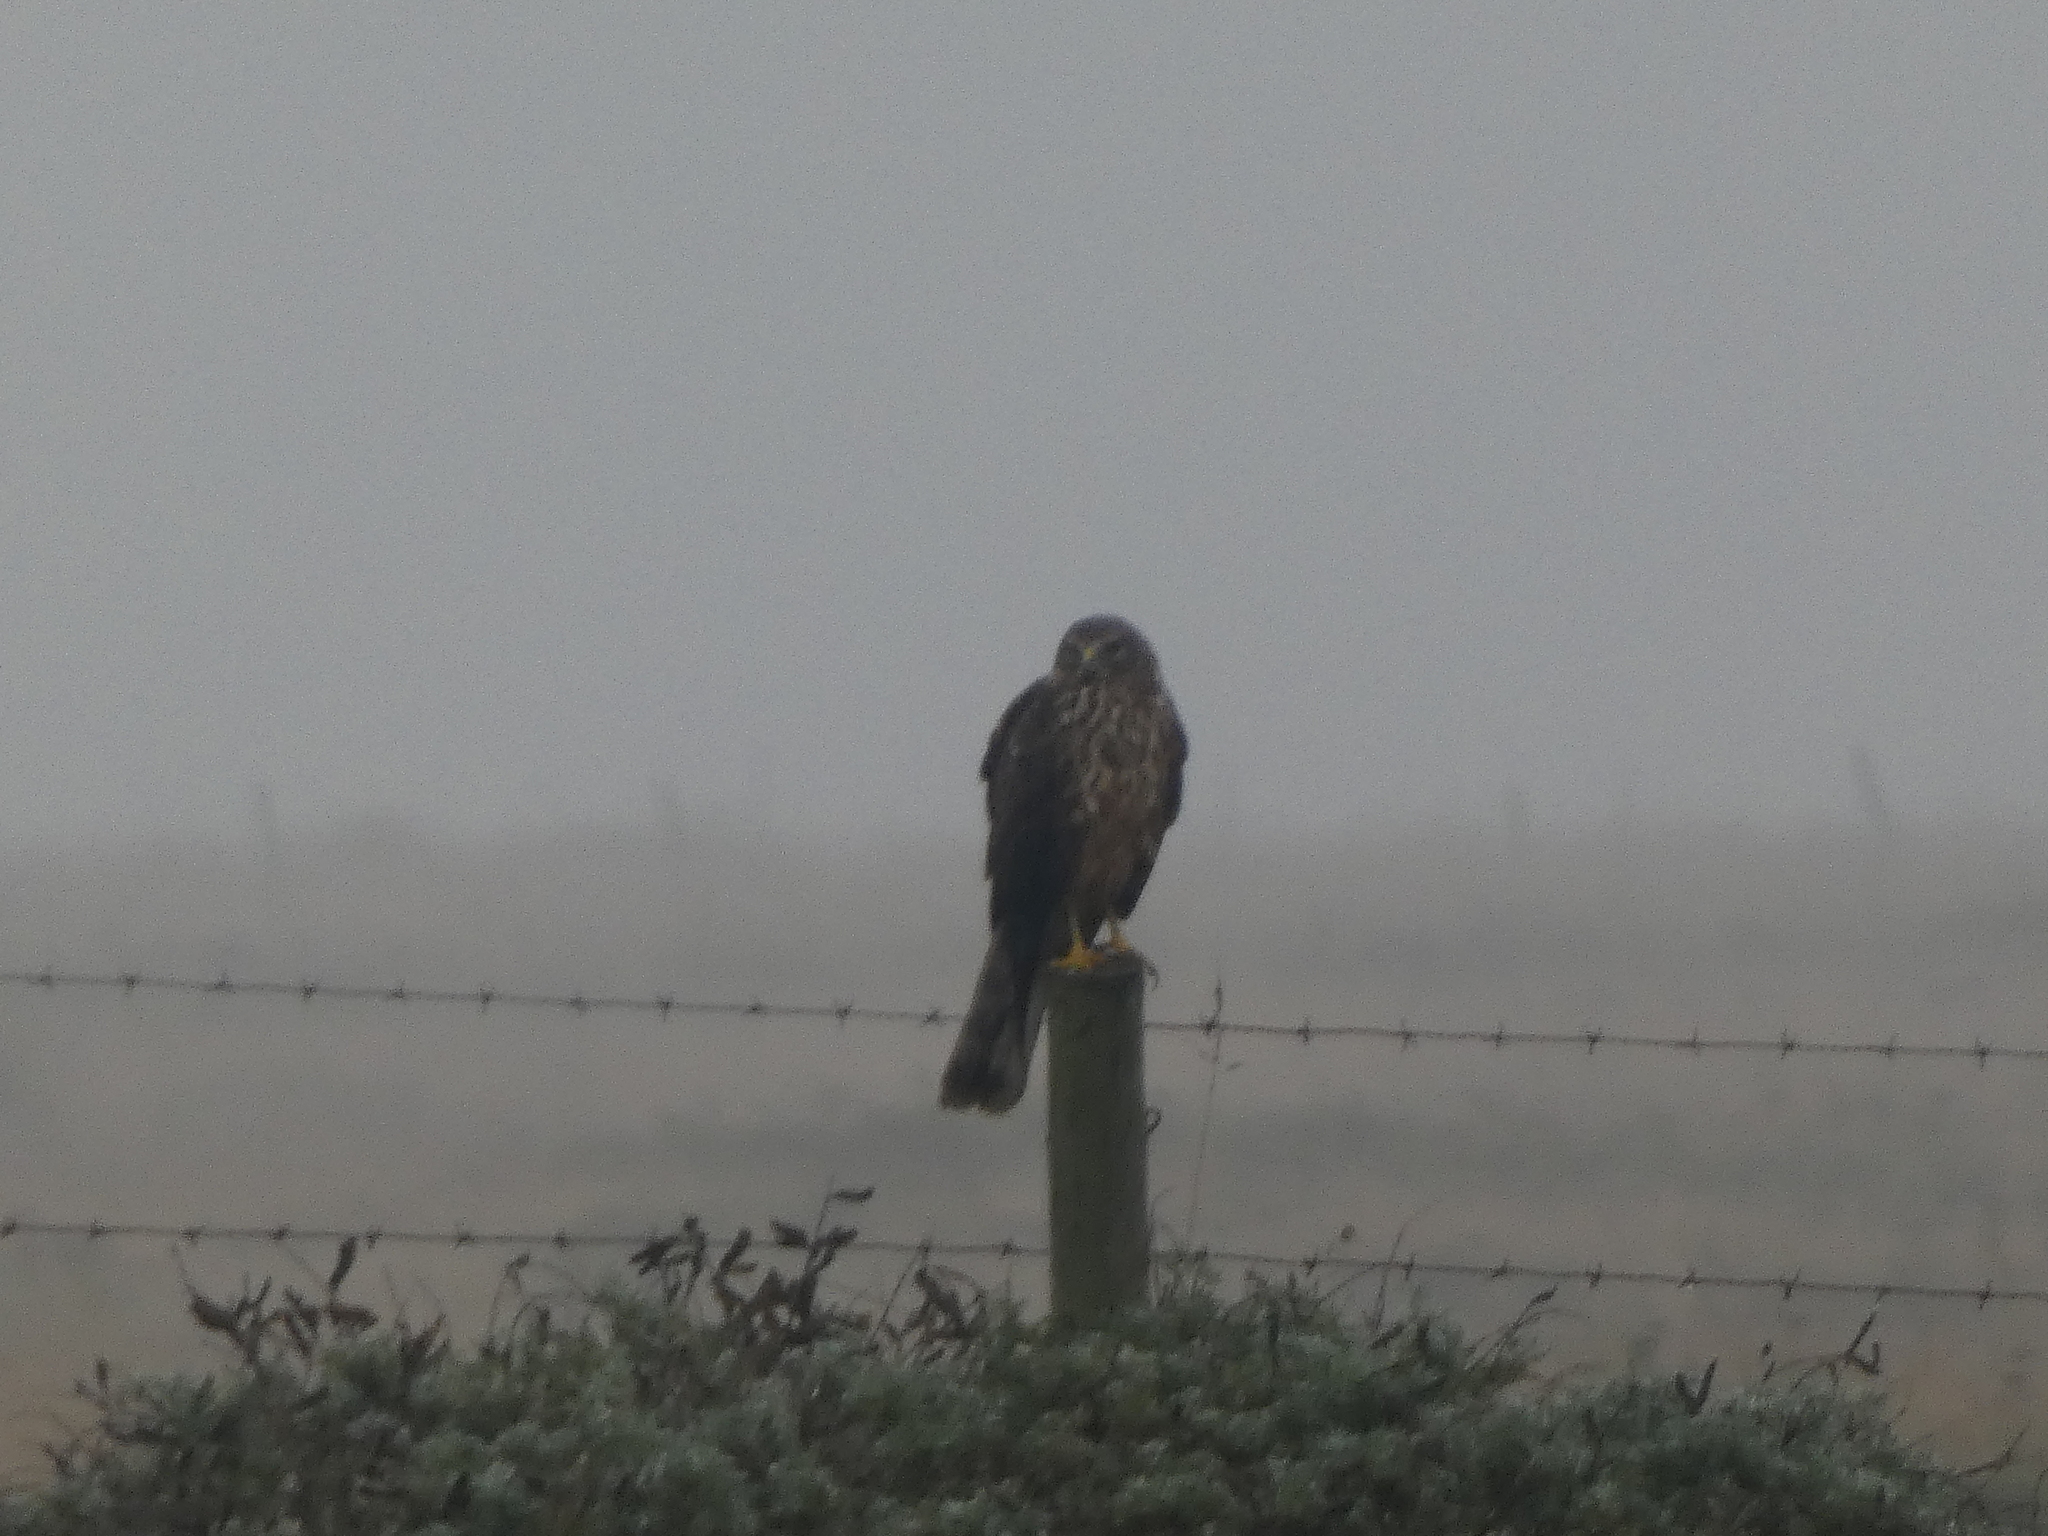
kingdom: Animalia
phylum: Chordata
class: Aves
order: Accipitriformes
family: Accipitridae
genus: Circus
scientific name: Circus cyaneus
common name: Hen harrier
